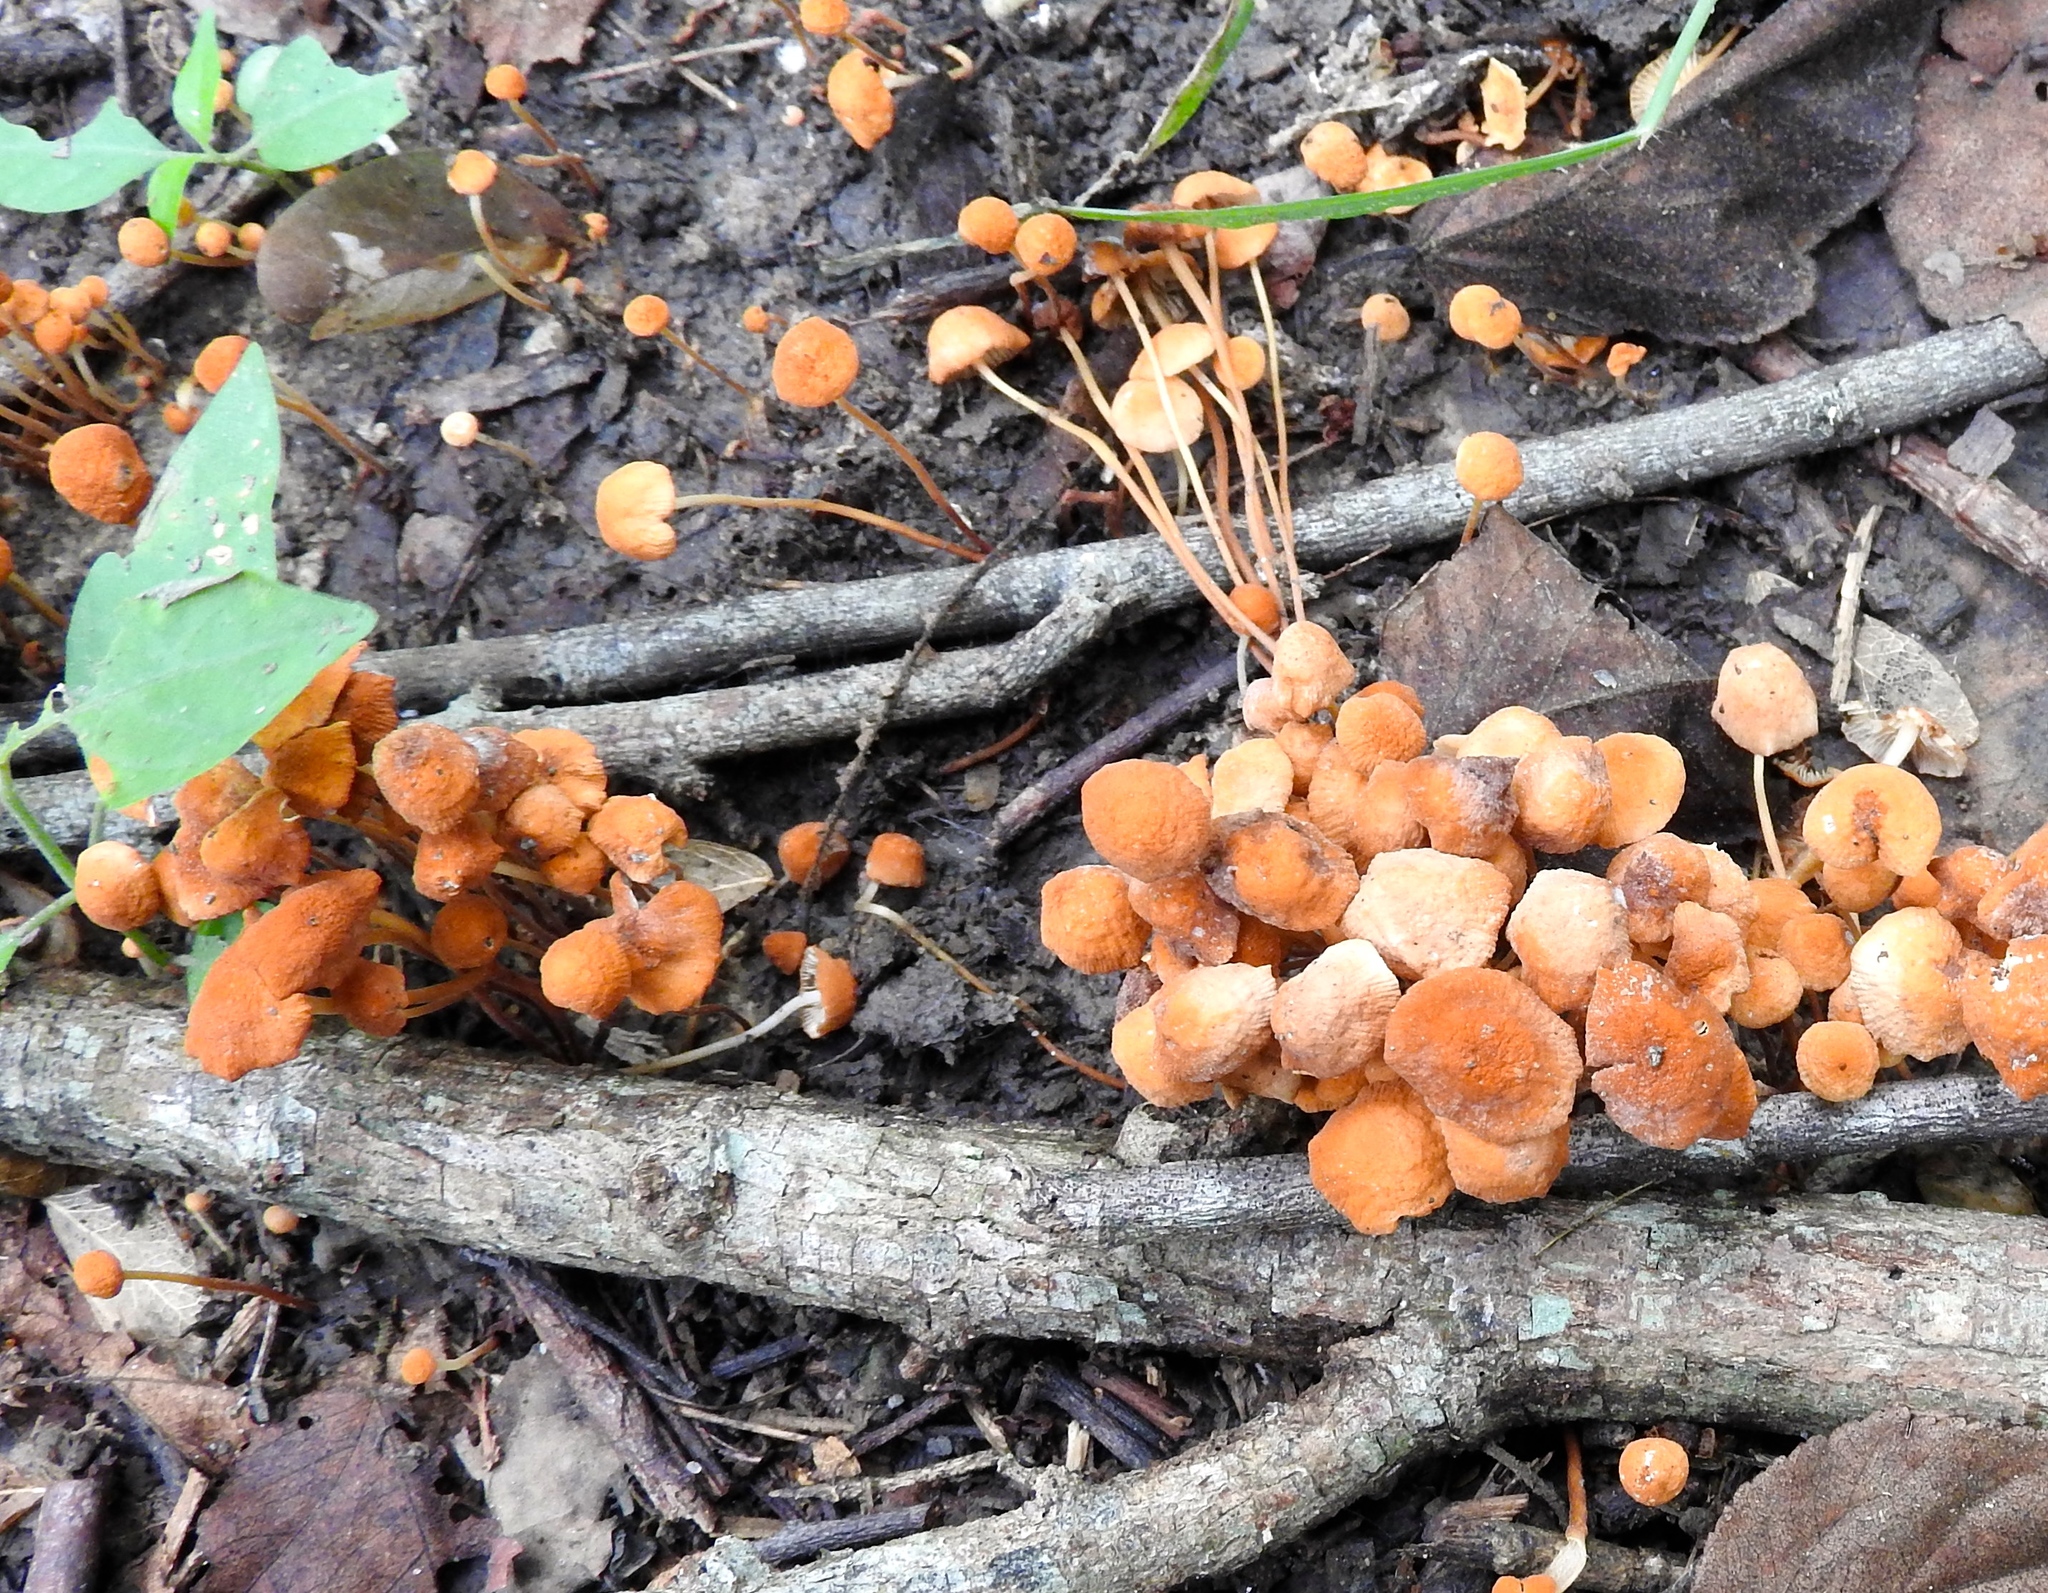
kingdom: Fungi
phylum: Basidiomycota
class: Agaricomycetes
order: Agaricales
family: Marasmiaceae
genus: Marasmius
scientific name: Marasmius
